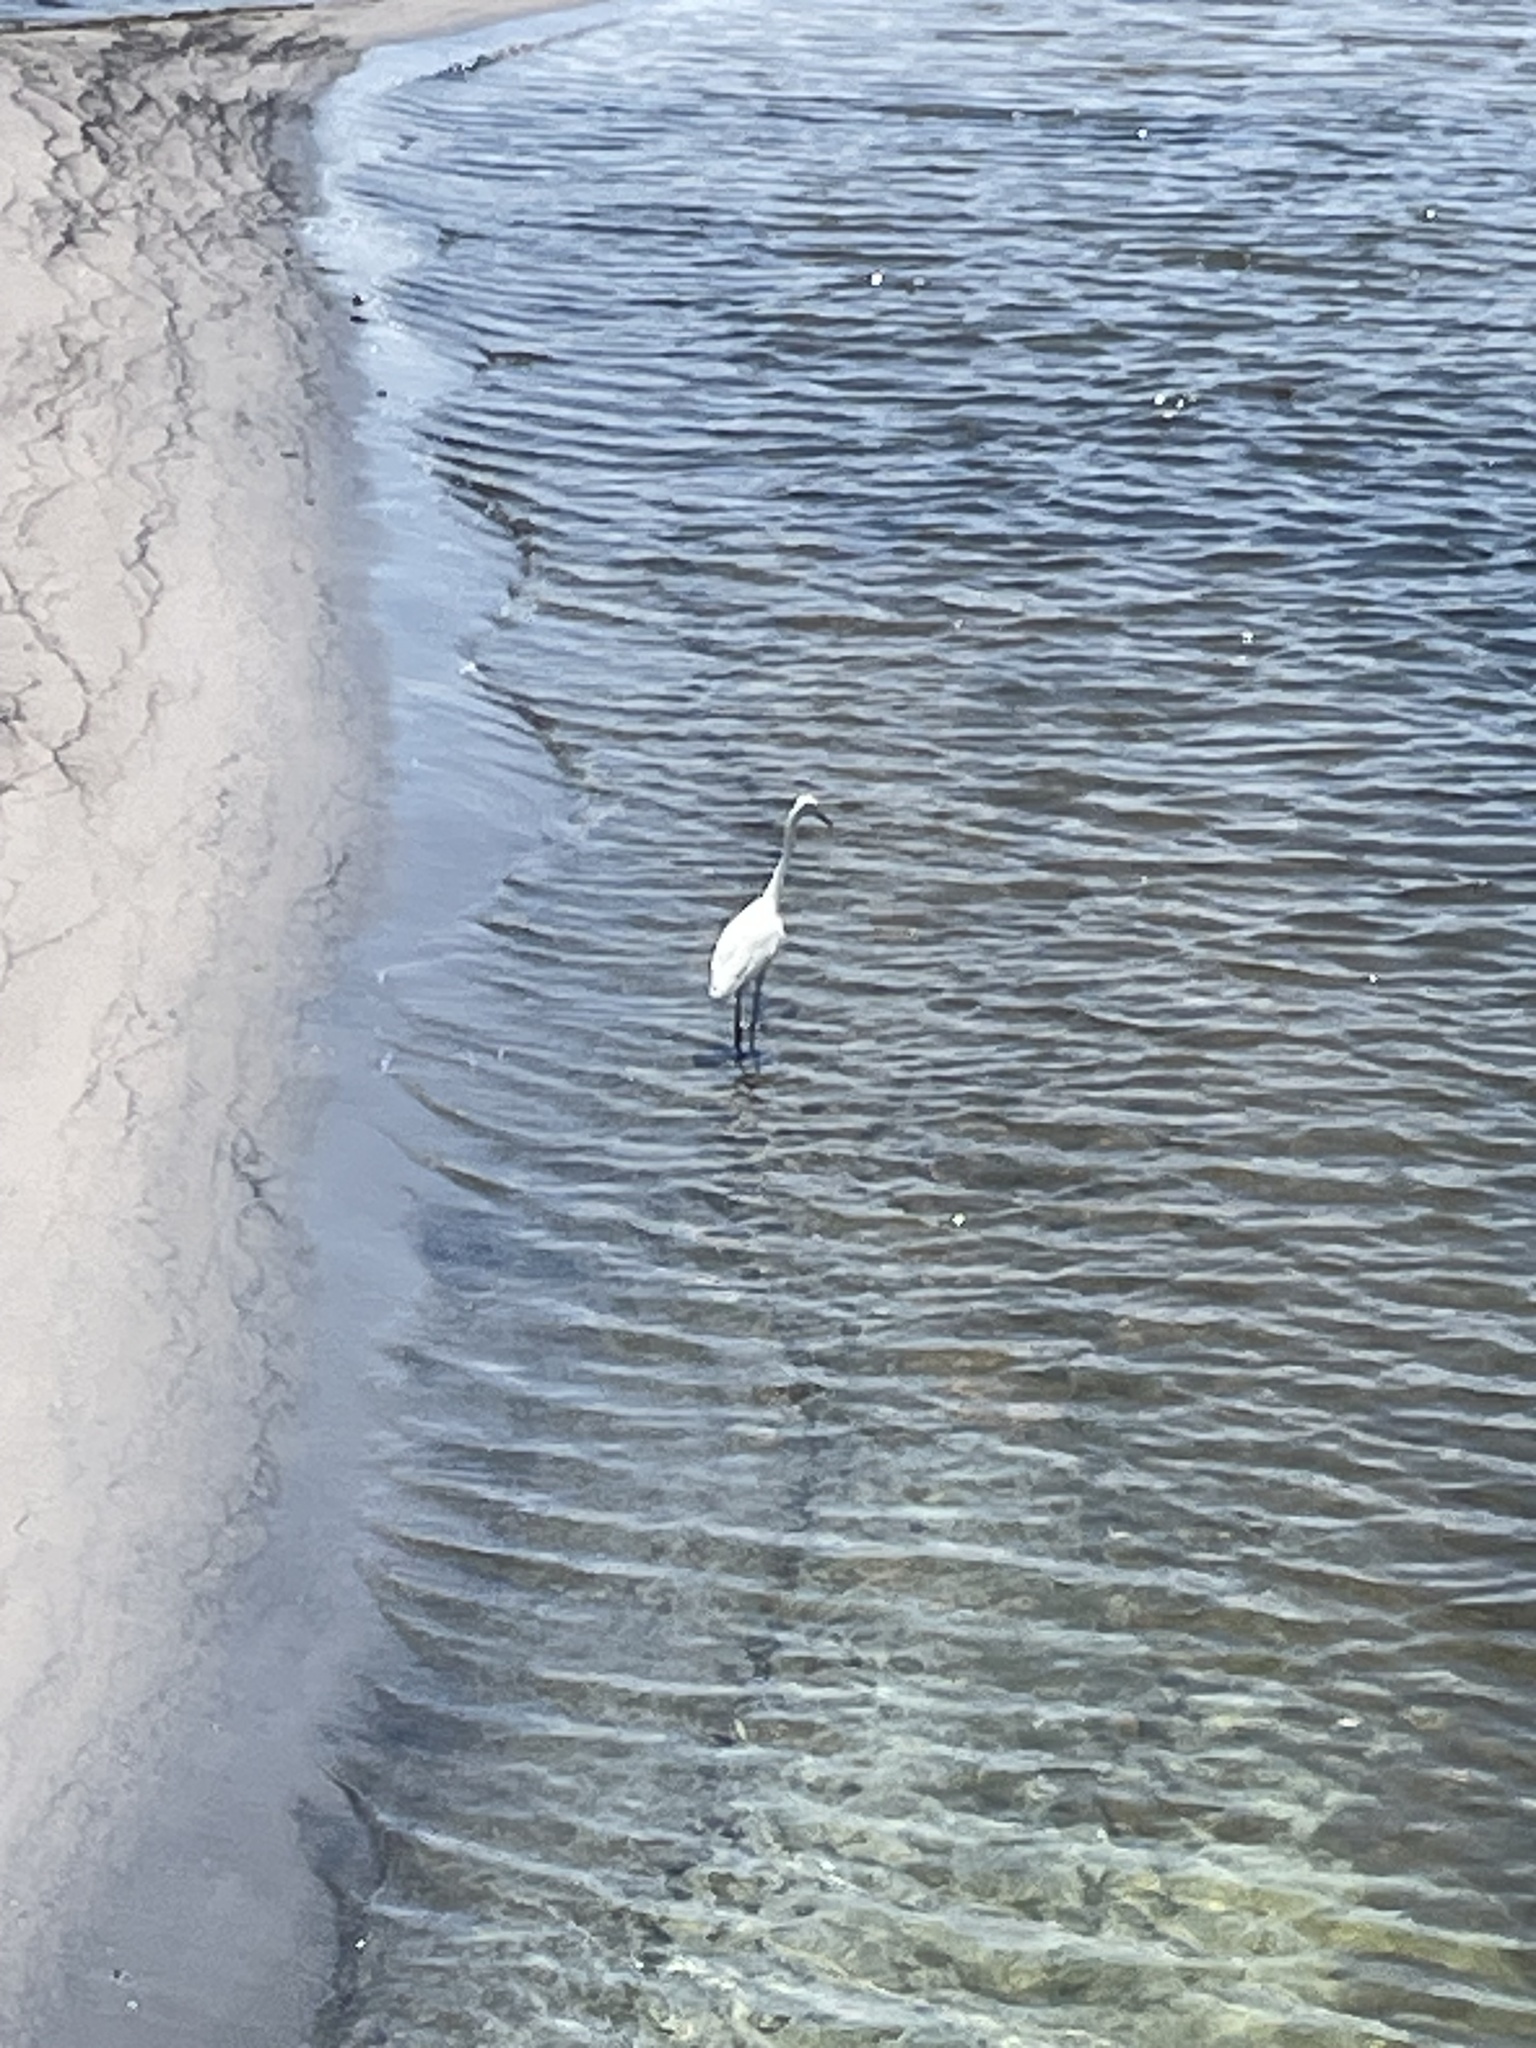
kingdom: Animalia
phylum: Chordata
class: Aves
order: Pelecaniformes
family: Ardeidae
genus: Egretta
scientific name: Egretta thula
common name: Snowy egret
